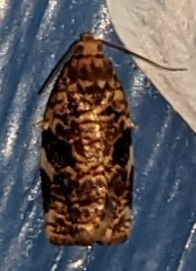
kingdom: Animalia
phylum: Arthropoda
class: Insecta
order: Lepidoptera
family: Tortricidae
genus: Archips
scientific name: Archips argyrospila
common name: Fruit-tree leafroller moth
